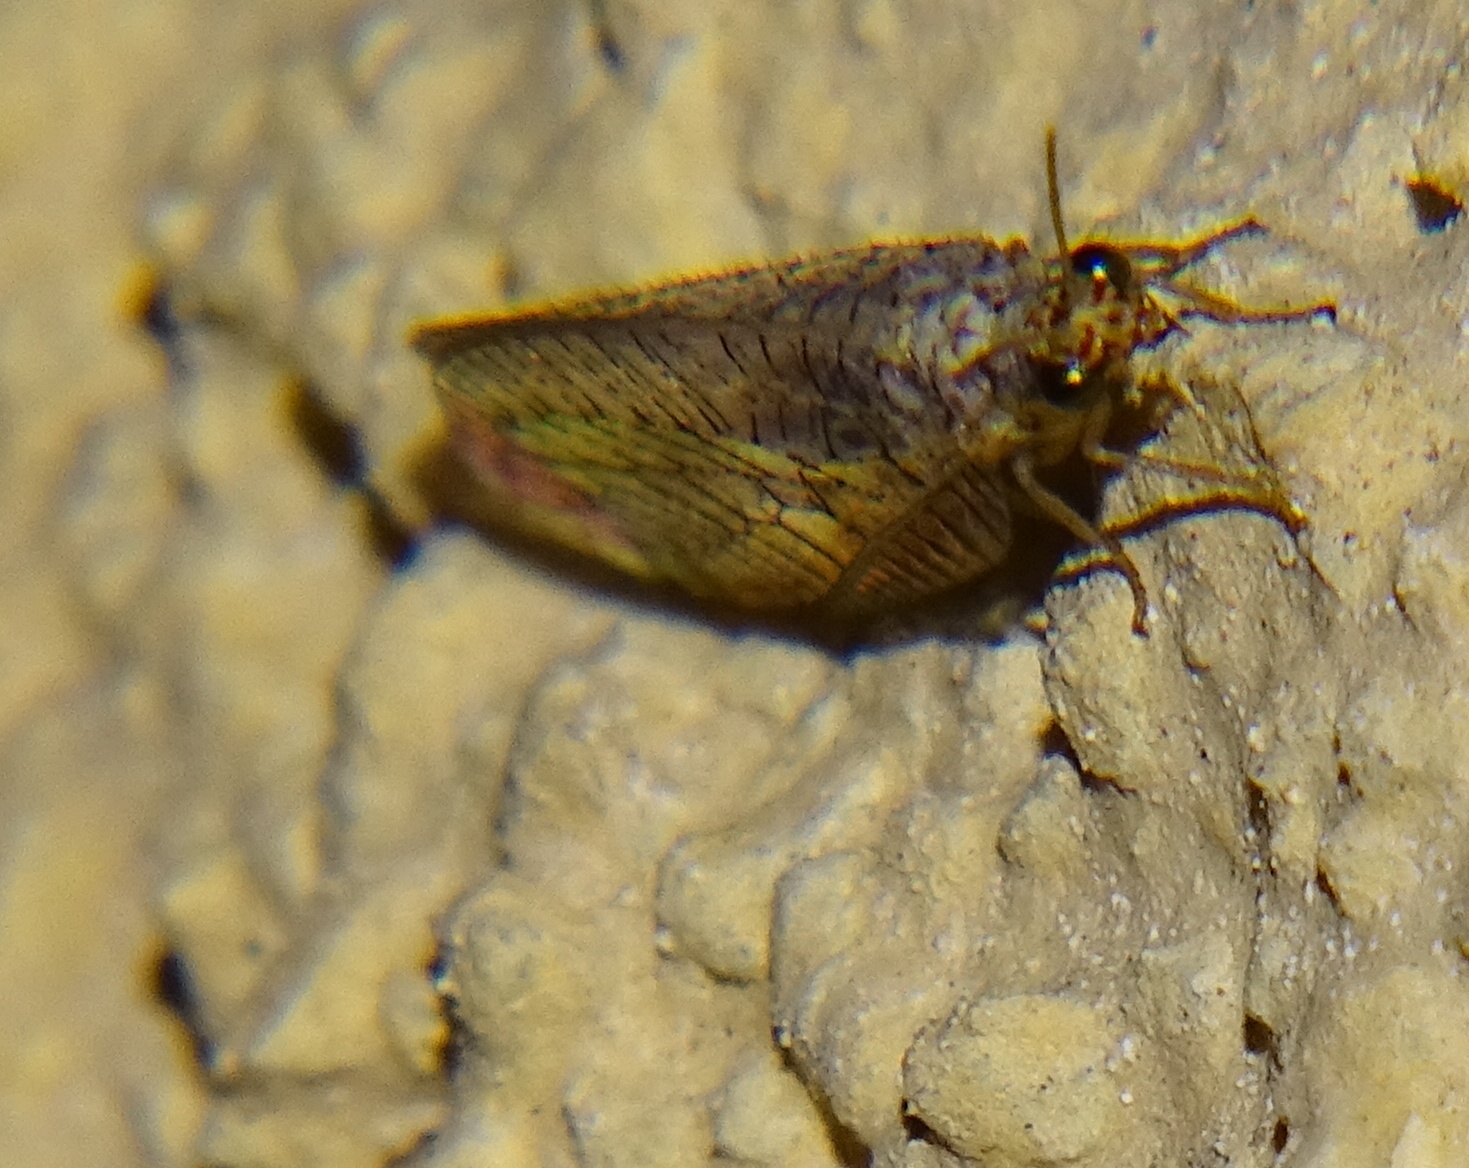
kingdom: Animalia
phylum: Arthropoda
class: Insecta
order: Neuroptera
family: Chrysopidae
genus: Eremochrysa
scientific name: Eremochrysa punctinervis
